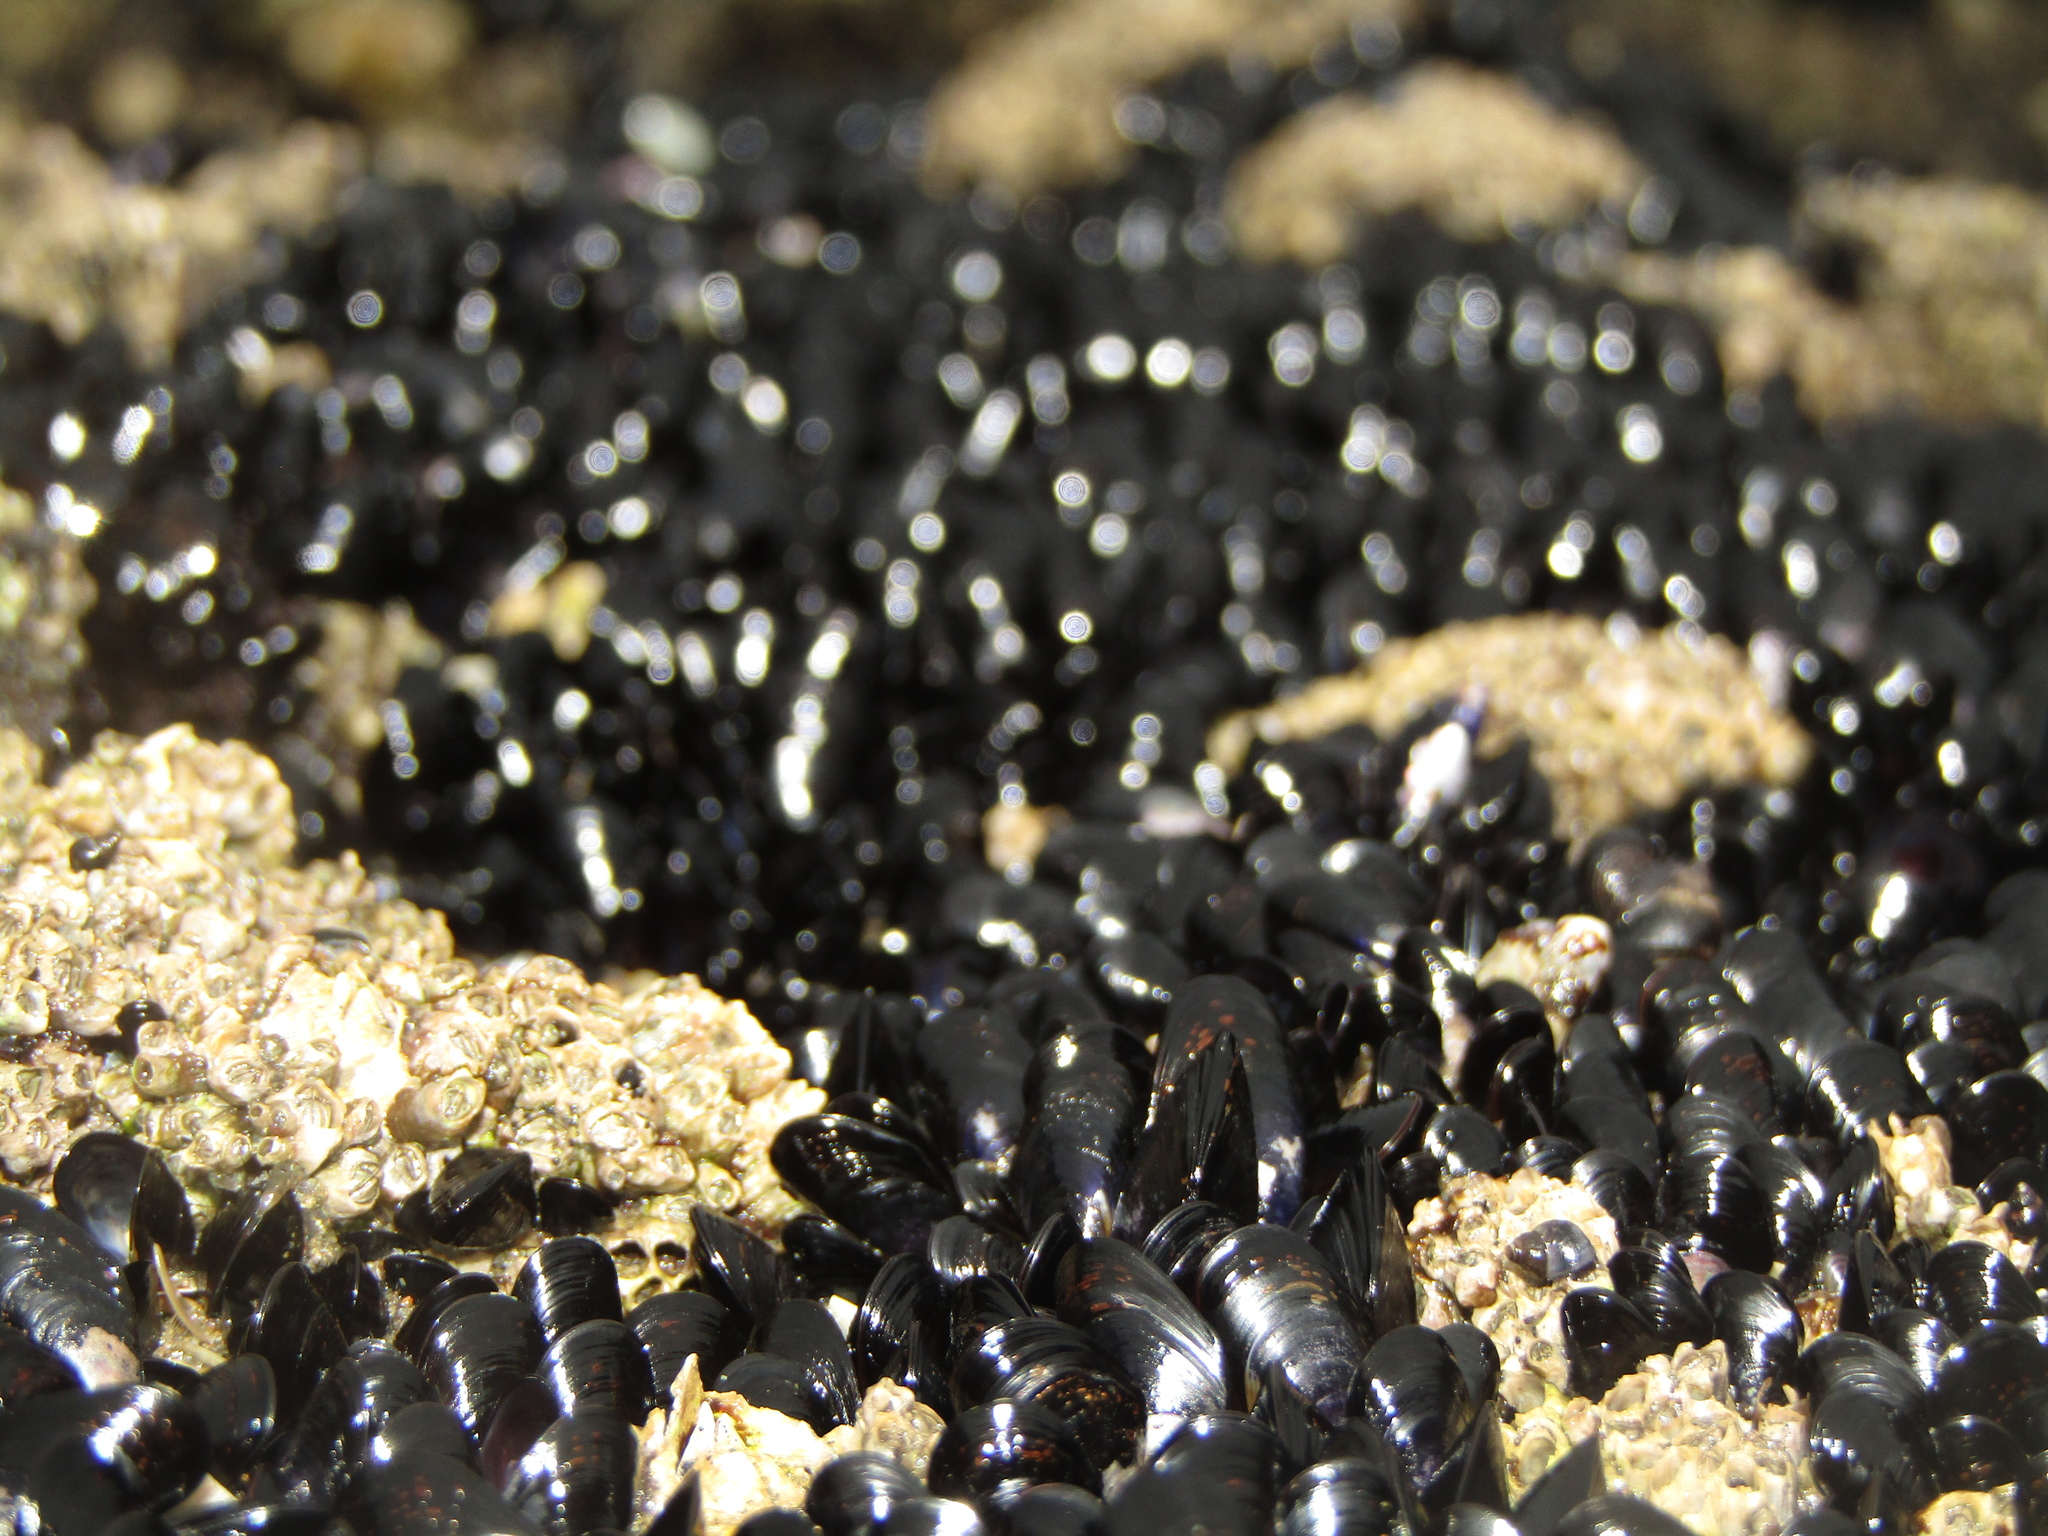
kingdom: Animalia
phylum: Mollusca
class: Bivalvia
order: Mytilida
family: Mytilidae
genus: Xenostrobus
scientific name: Xenostrobus neozelanicus
